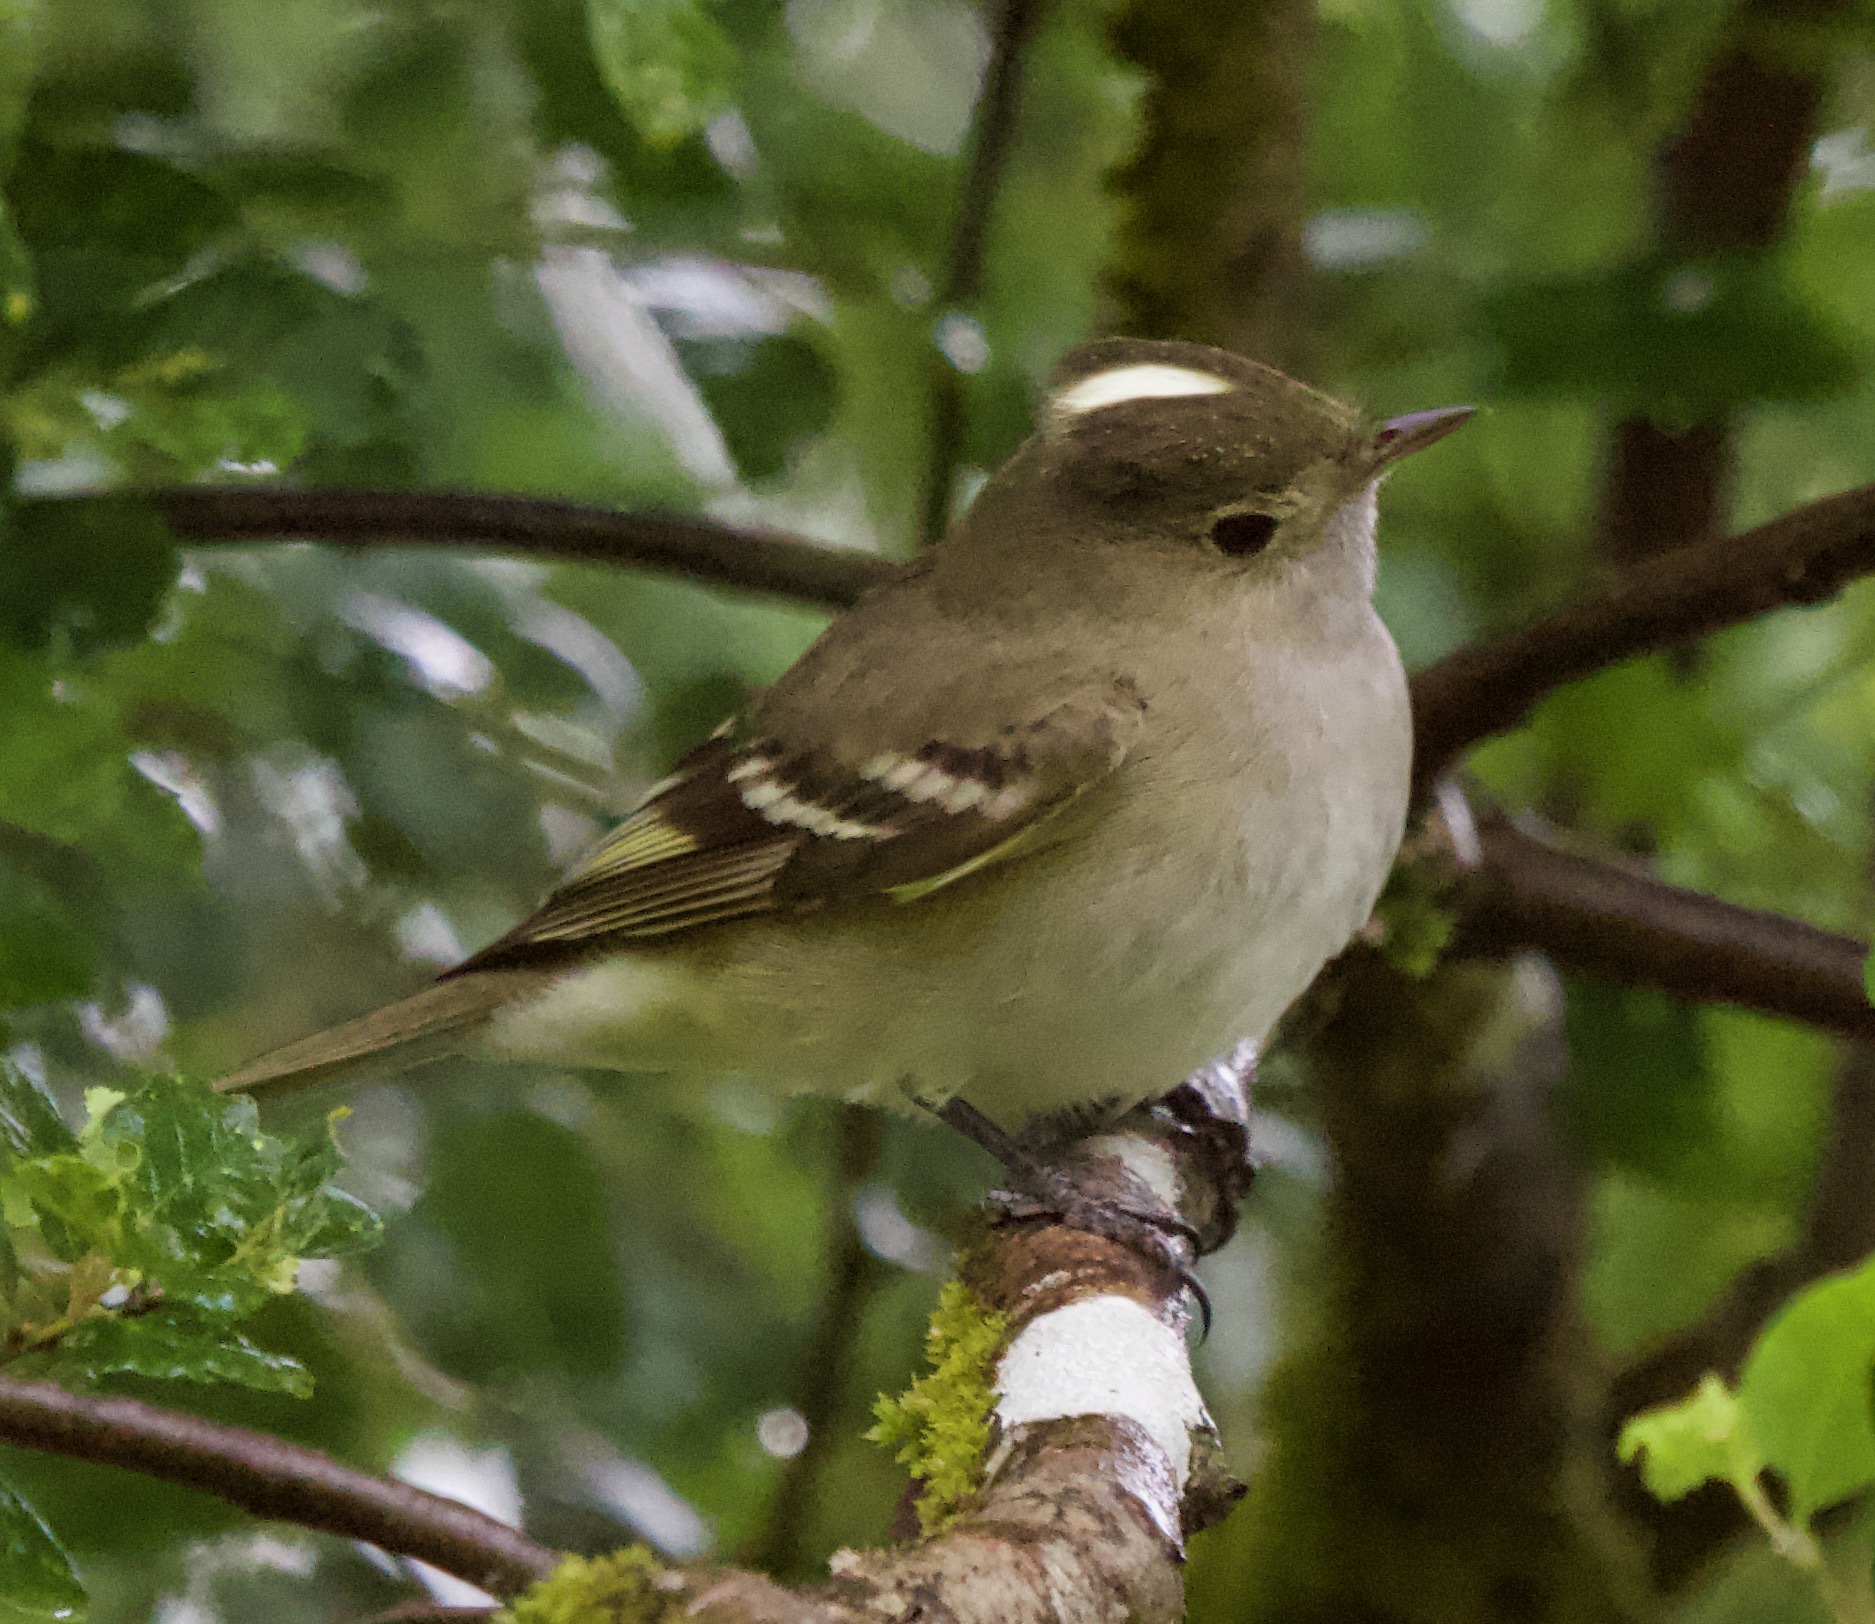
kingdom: Animalia
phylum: Chordata
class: Aves
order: Passeriformes
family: Tyrannidae
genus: Elaenia
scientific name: Elaenia albiceps
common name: White-crested elaenia
